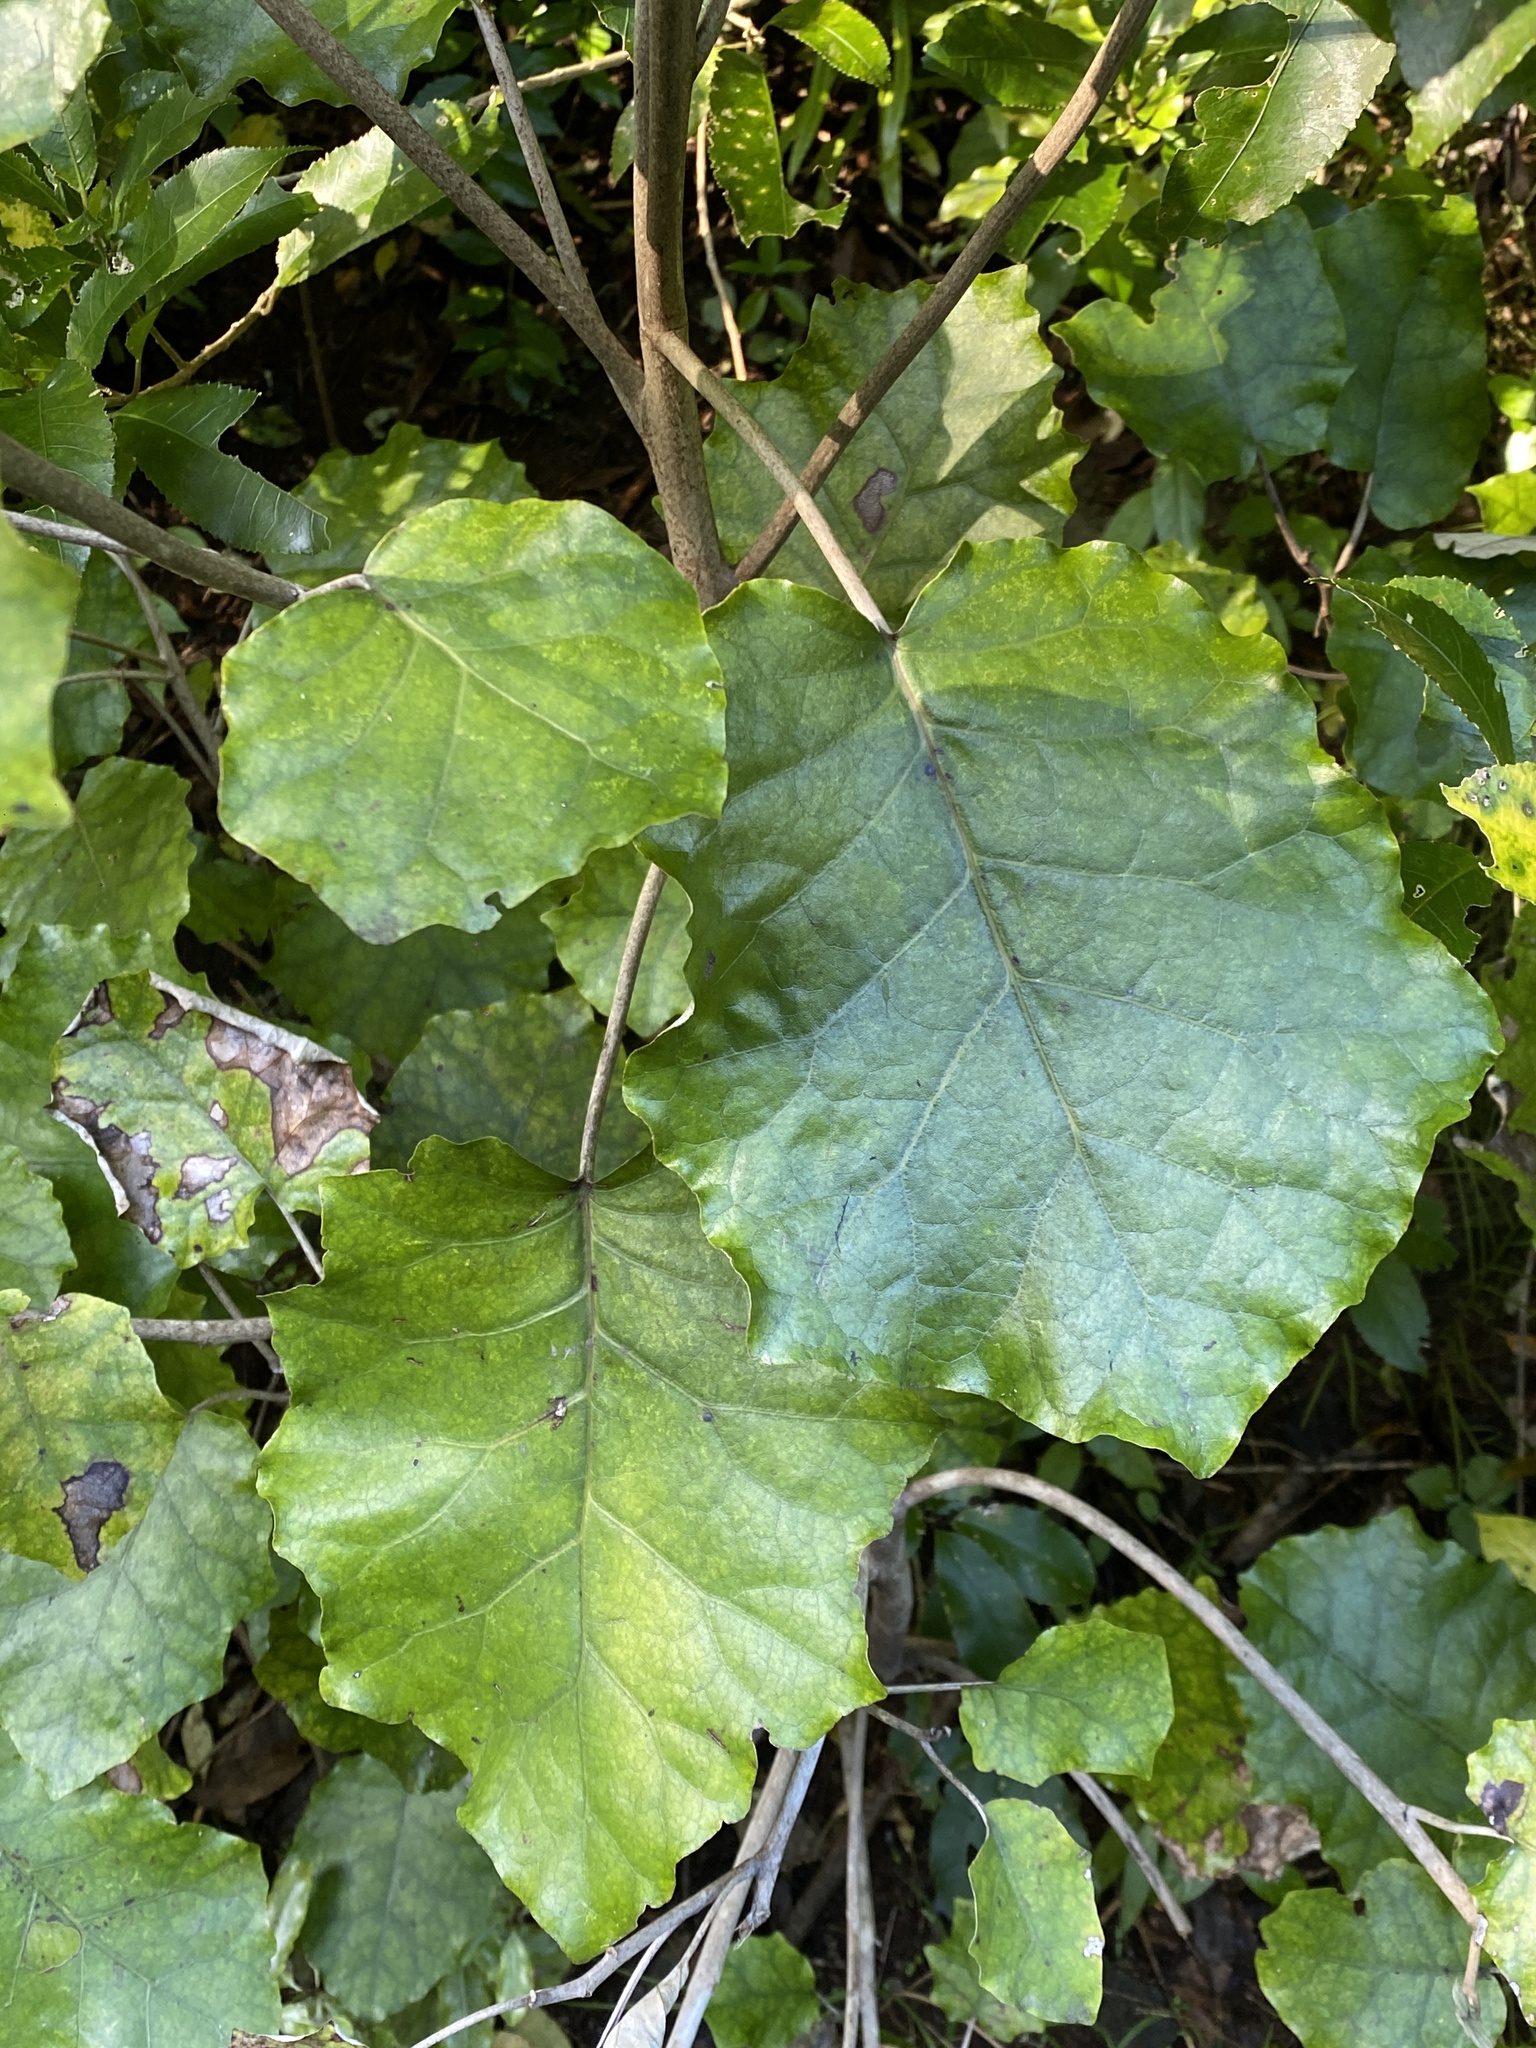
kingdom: Plantae
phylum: Tracheophyta
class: Magnoliopsida
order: Asterales
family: Asteraceae
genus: Brachyglottis
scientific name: Brachyglottis repanda
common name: Hedge ragwort
